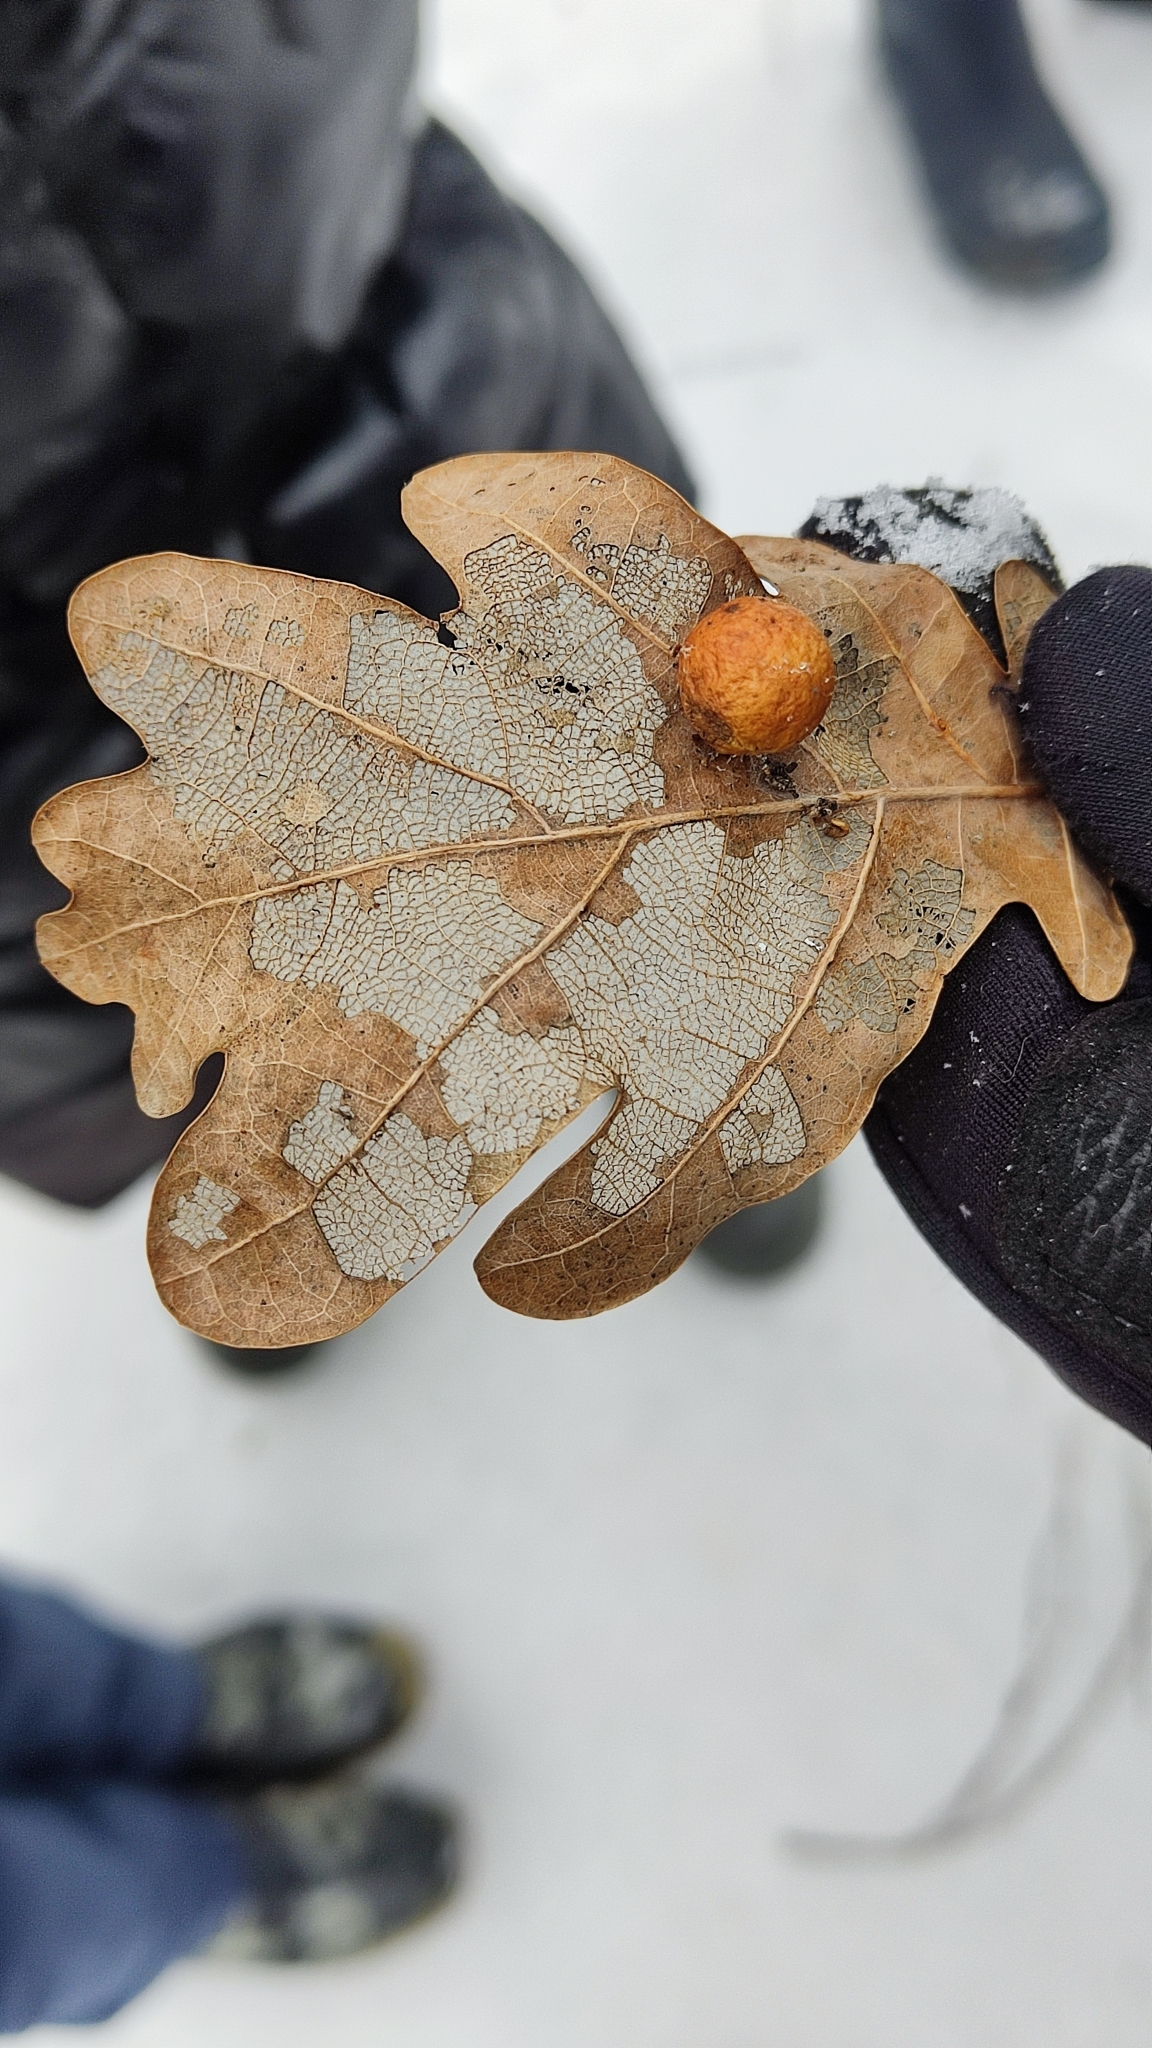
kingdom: Animalia
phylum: Arthropoda
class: Insecta
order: Hymenoptera
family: Cynipidae
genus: Cynips
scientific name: Cynips quercusfolii
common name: Cherry gall
